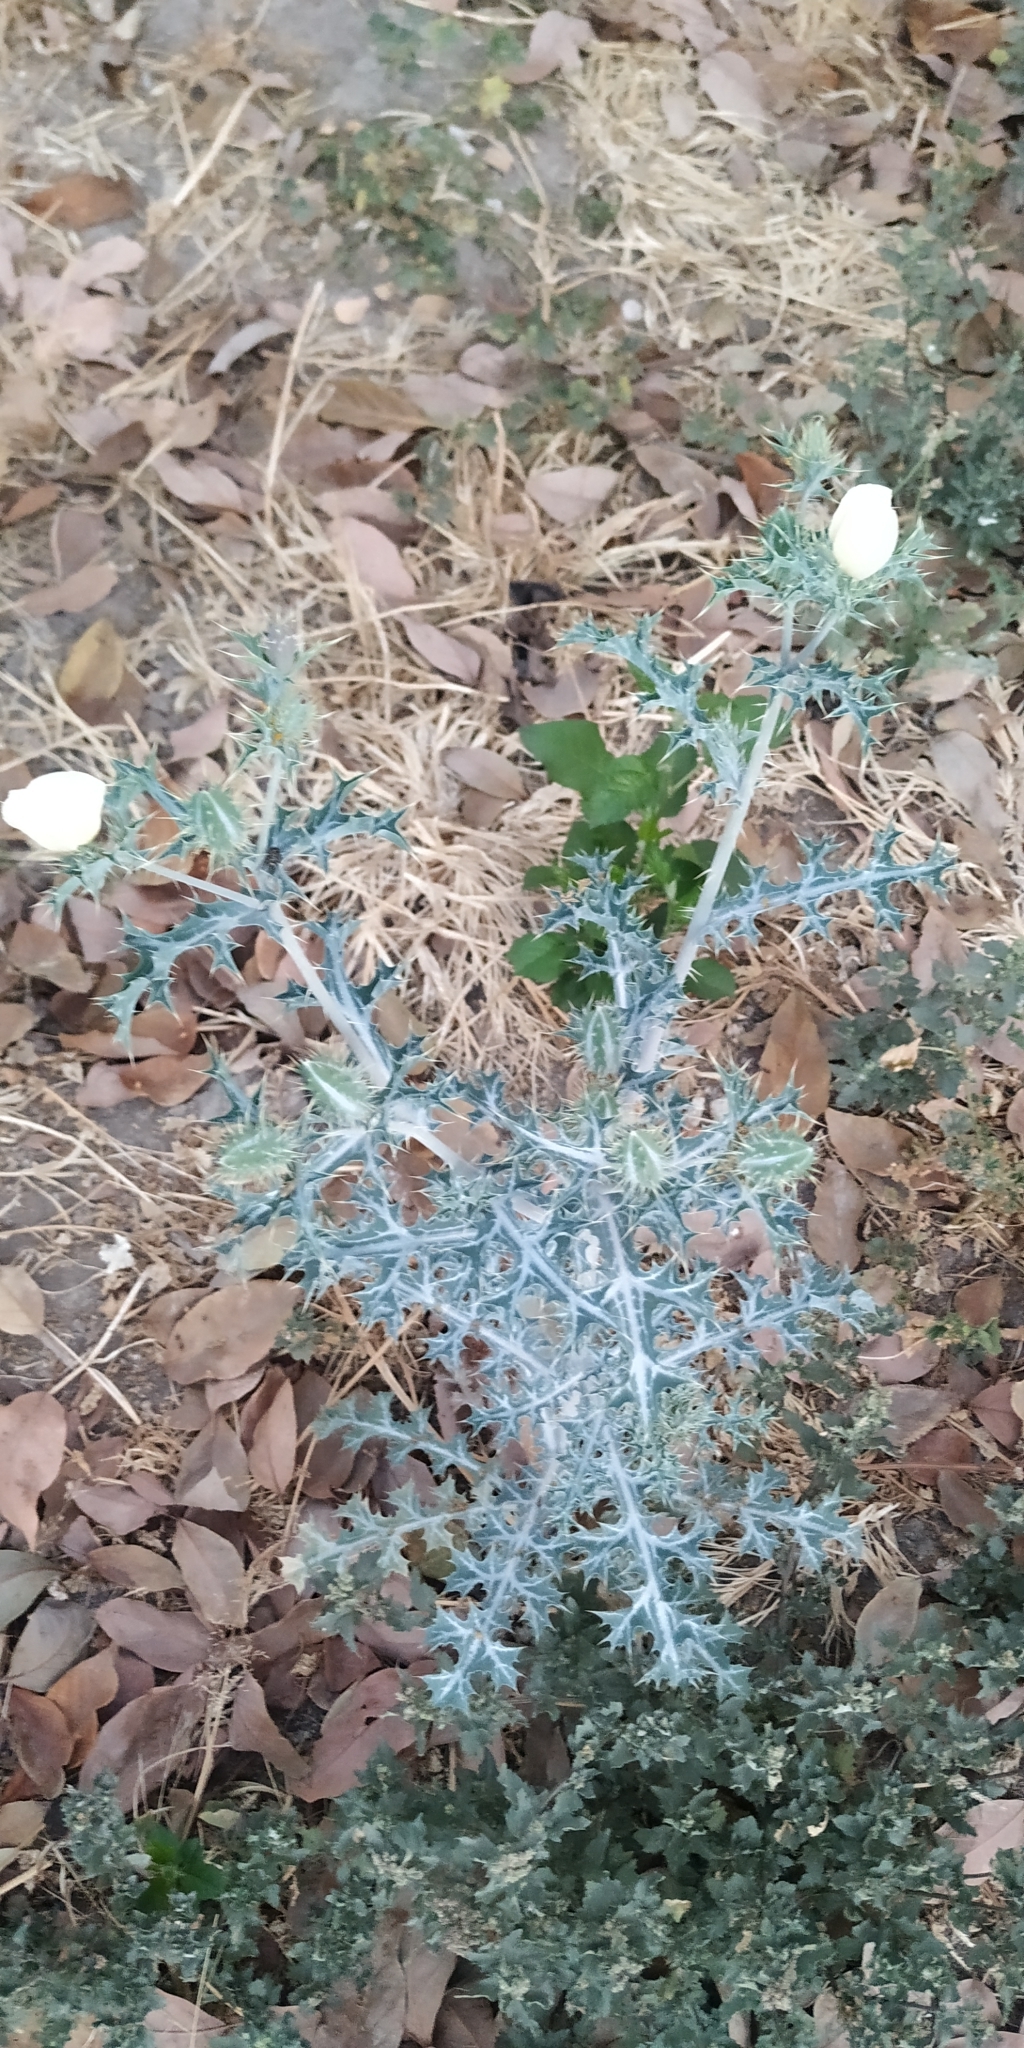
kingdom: Plantae
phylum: Tracheophyta
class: Magnoliopsida
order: Ranunculales
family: Papaveraceae
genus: Argemone
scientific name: Argemone ochroleuca
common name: White-flower mexican-poppy
